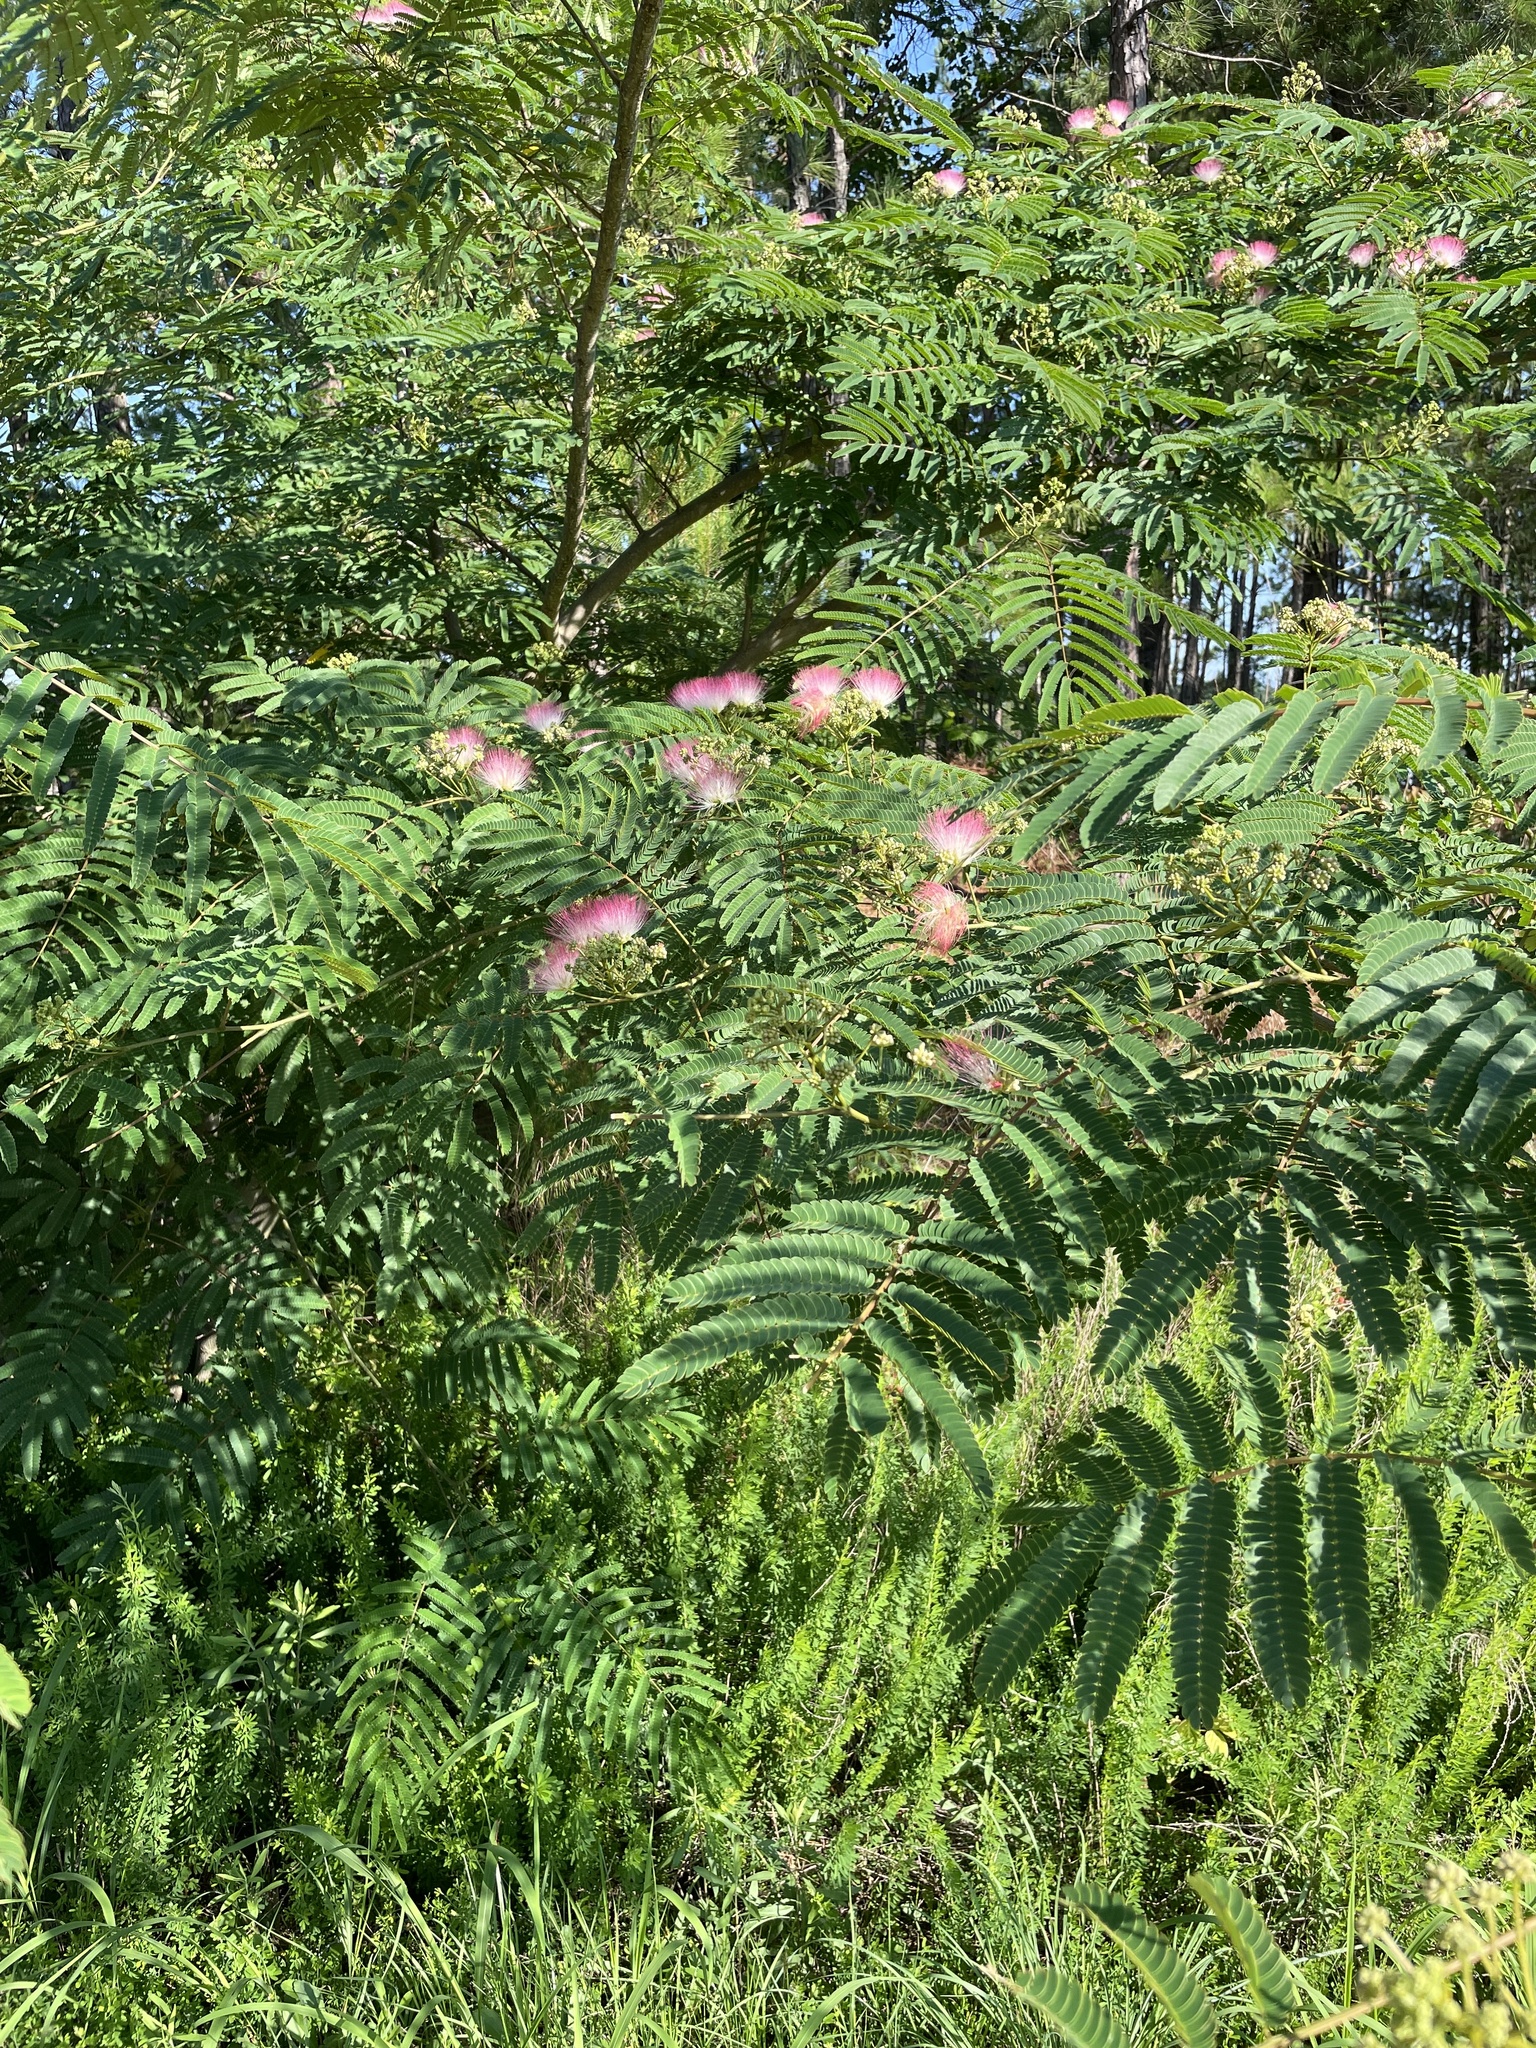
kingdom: Plantae
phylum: Tracheophyta
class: Magnoliopsida
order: Fabales
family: Fabaceae
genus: Albizia
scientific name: Albizia julibrissin
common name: Silktree
